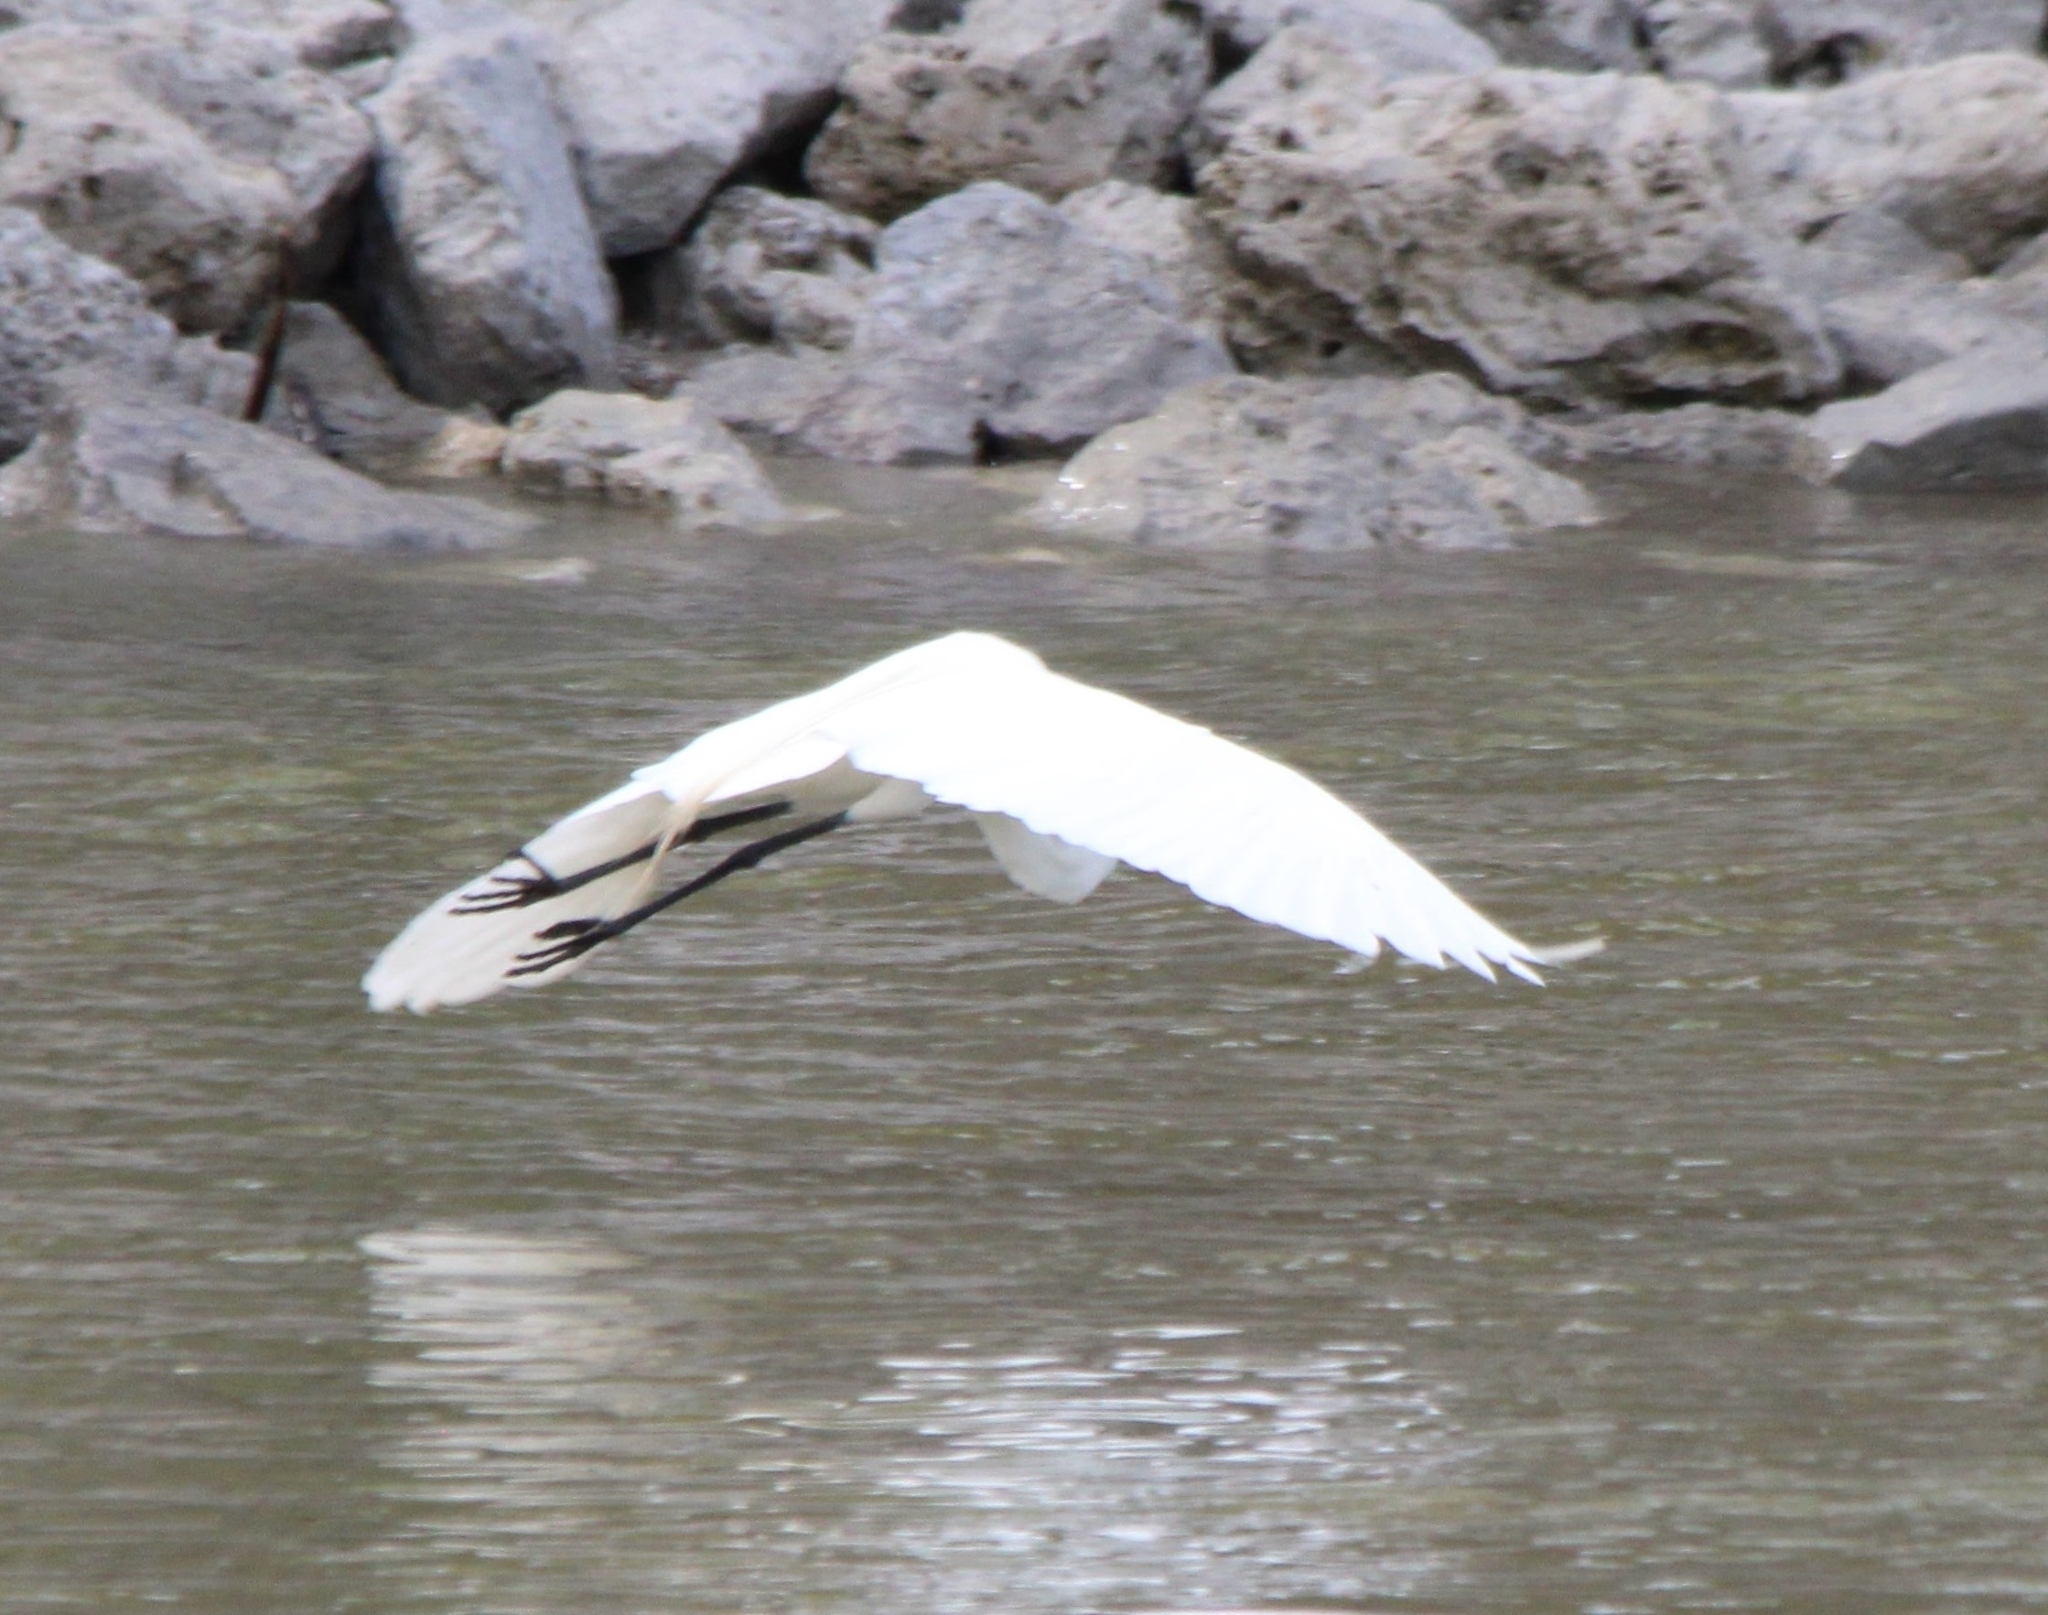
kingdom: Animalia
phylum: Chordata
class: Aves
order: Pelecaniformes
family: Ardeidae
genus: Ardea
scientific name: Ardea alba
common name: Great egret
